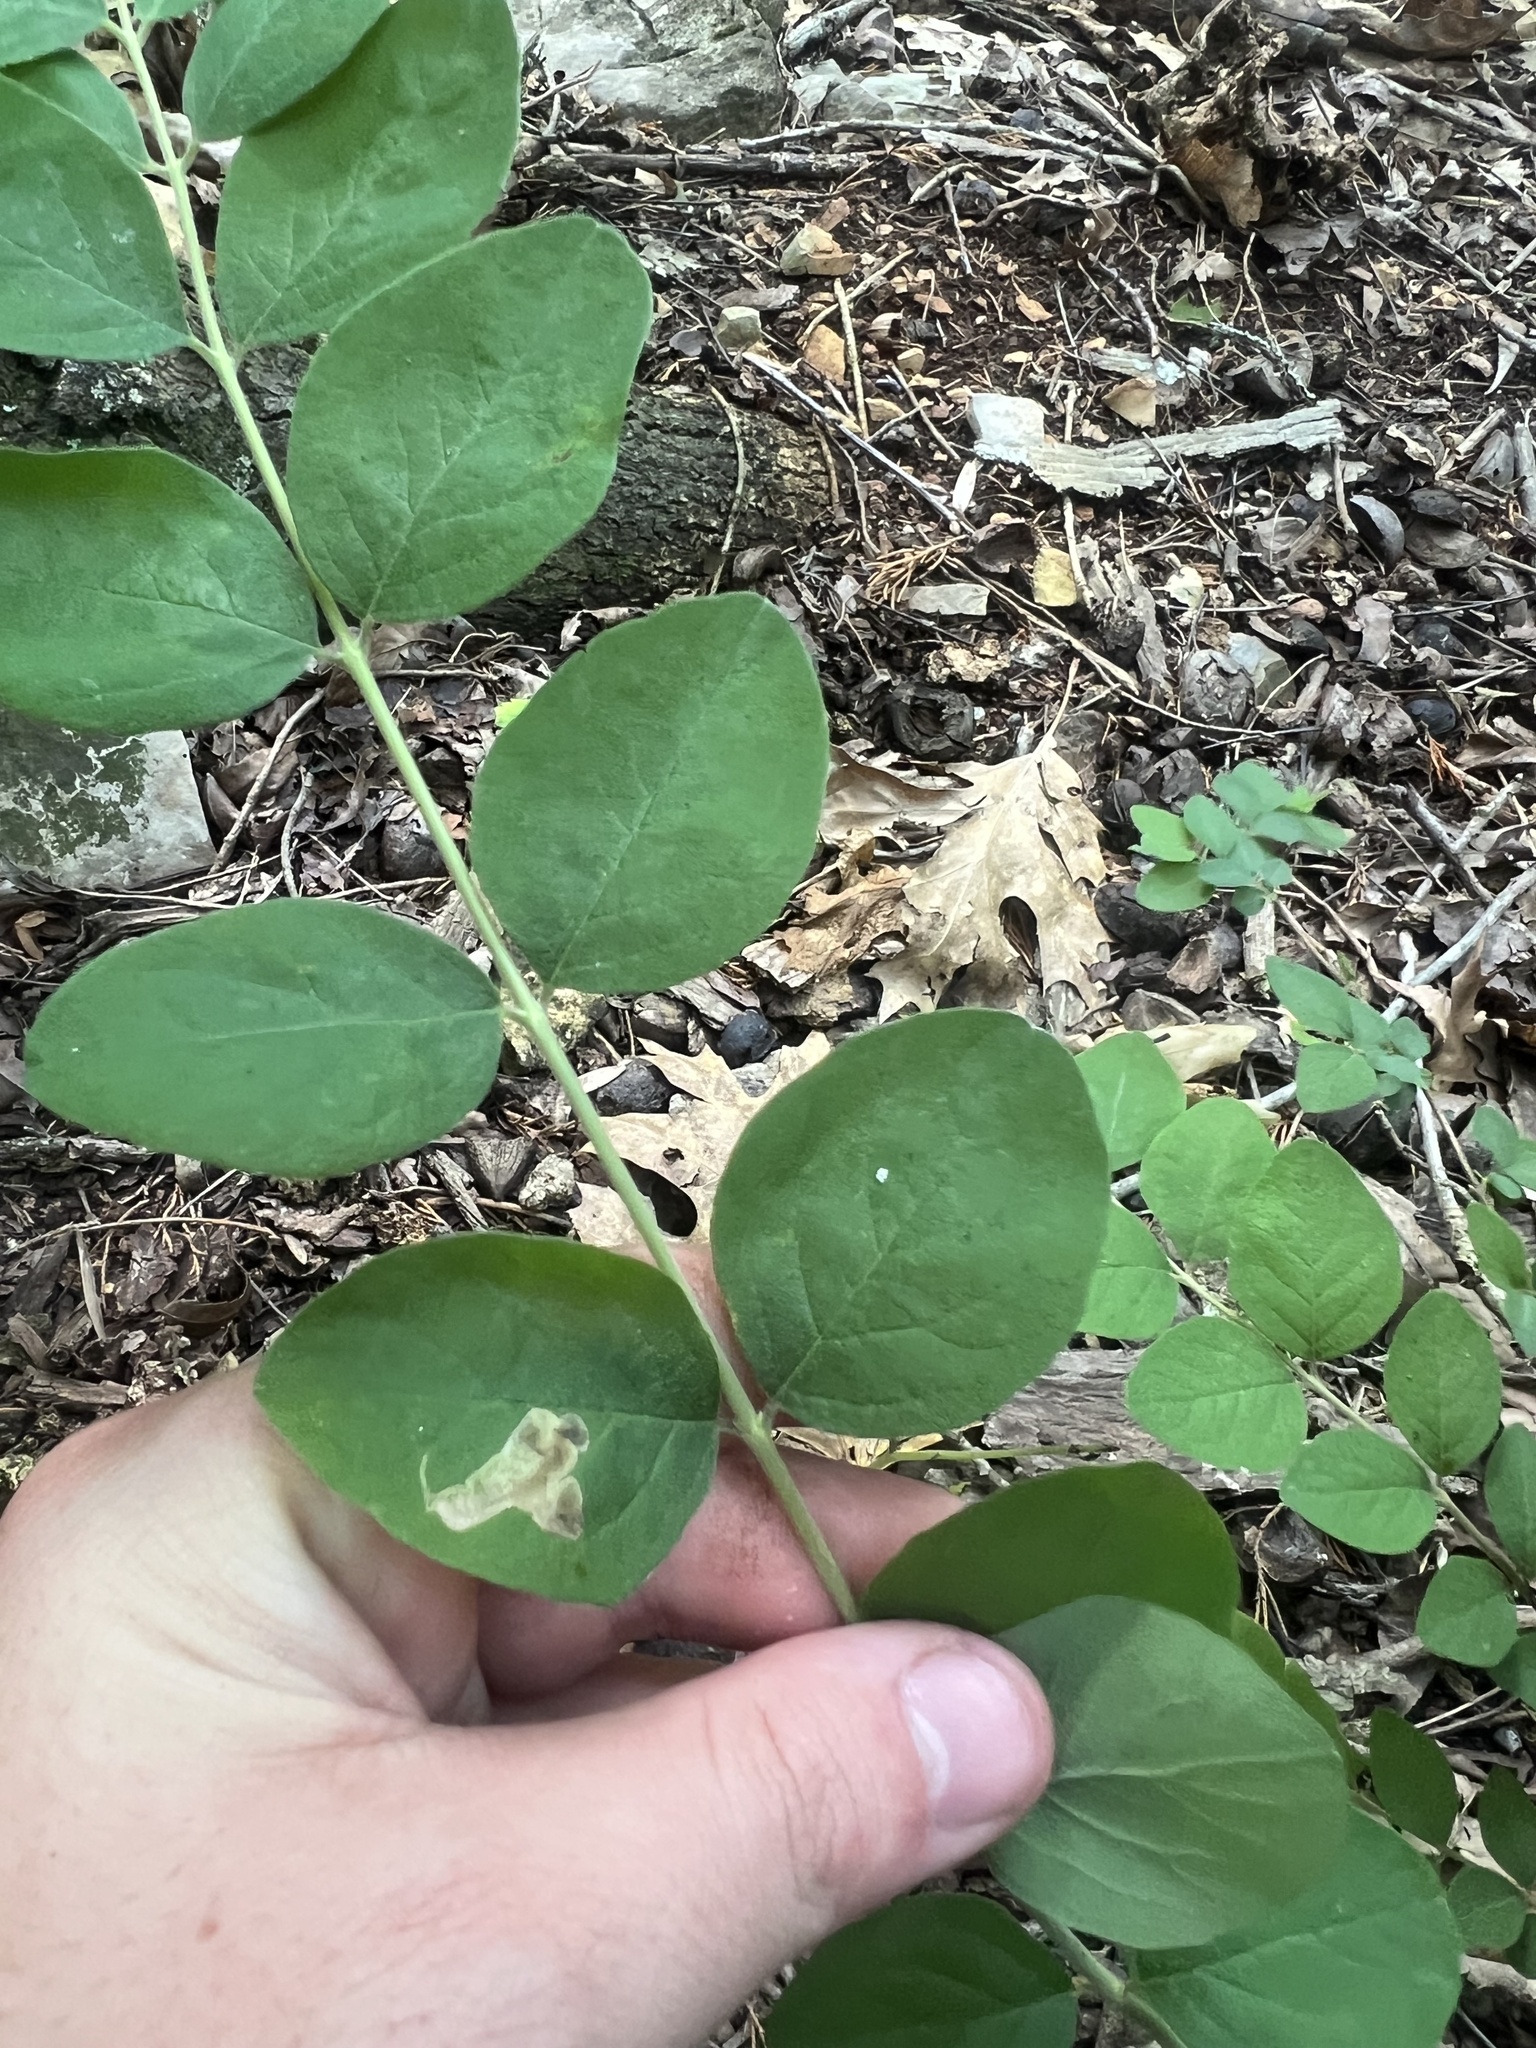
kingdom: Plantae
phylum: Tracheophyta
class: Magnoliopsida
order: Dipsacales
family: Caprifoliaceae
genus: Symphoricarpos
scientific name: Symphoricarpos orbiculatus
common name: Coralberry
